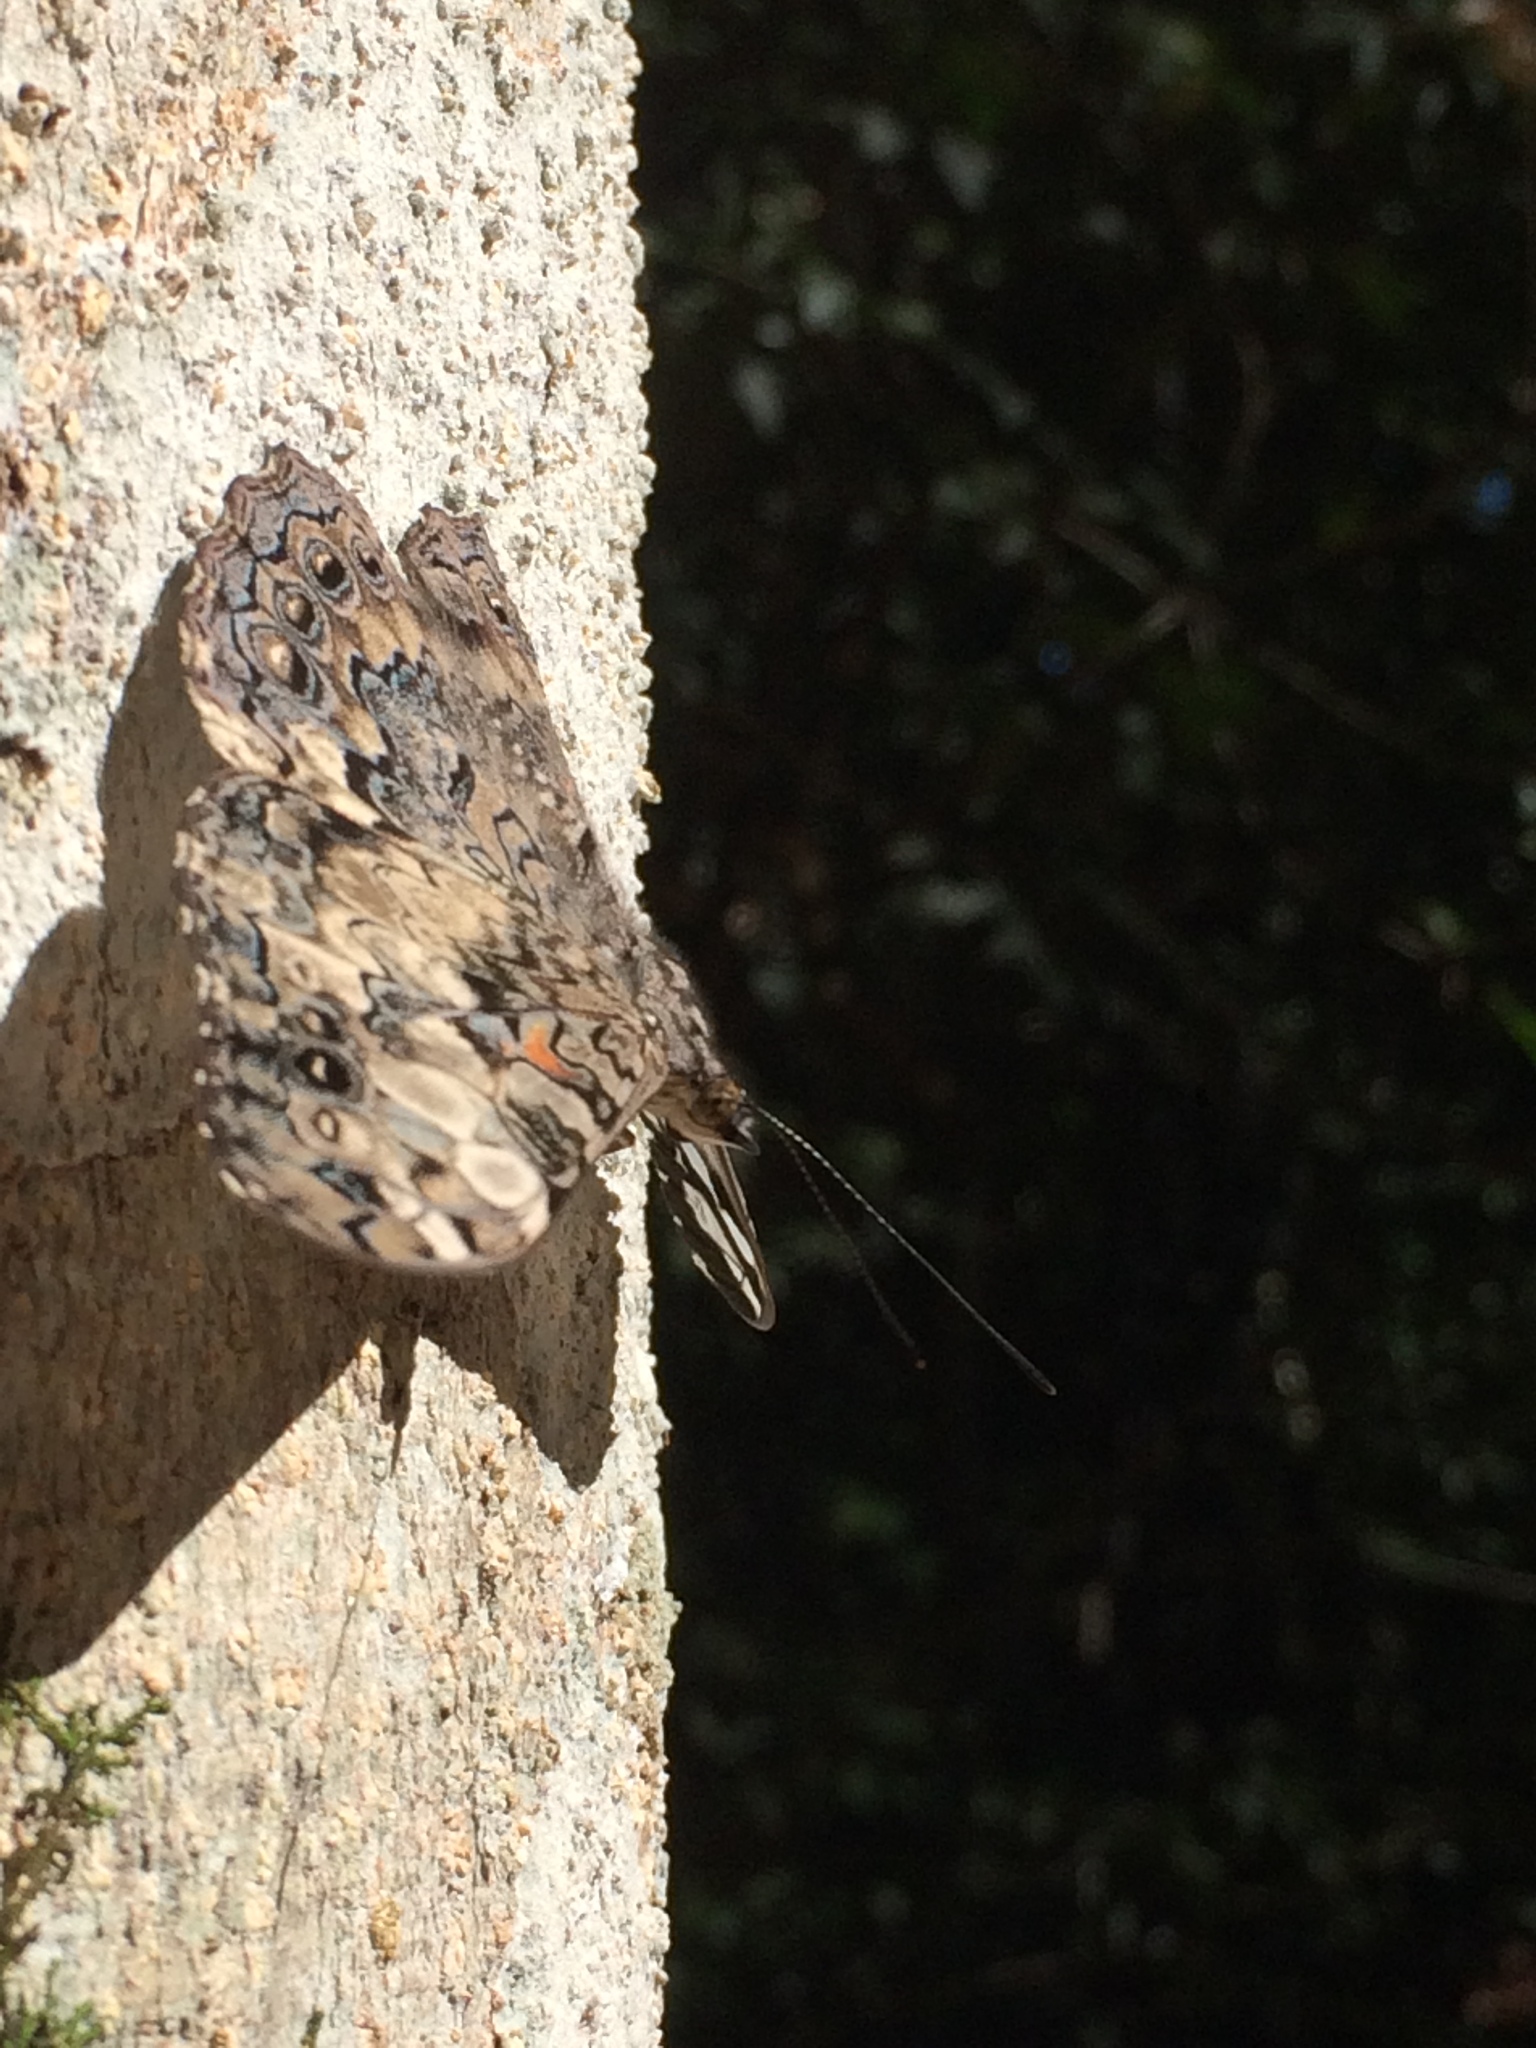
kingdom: Animalia
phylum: Arthropoda
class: Insecta
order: Lepidoptera
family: Nymphalidae
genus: Hamadryas
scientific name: Hamadryas epinome
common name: Epinome cracker
